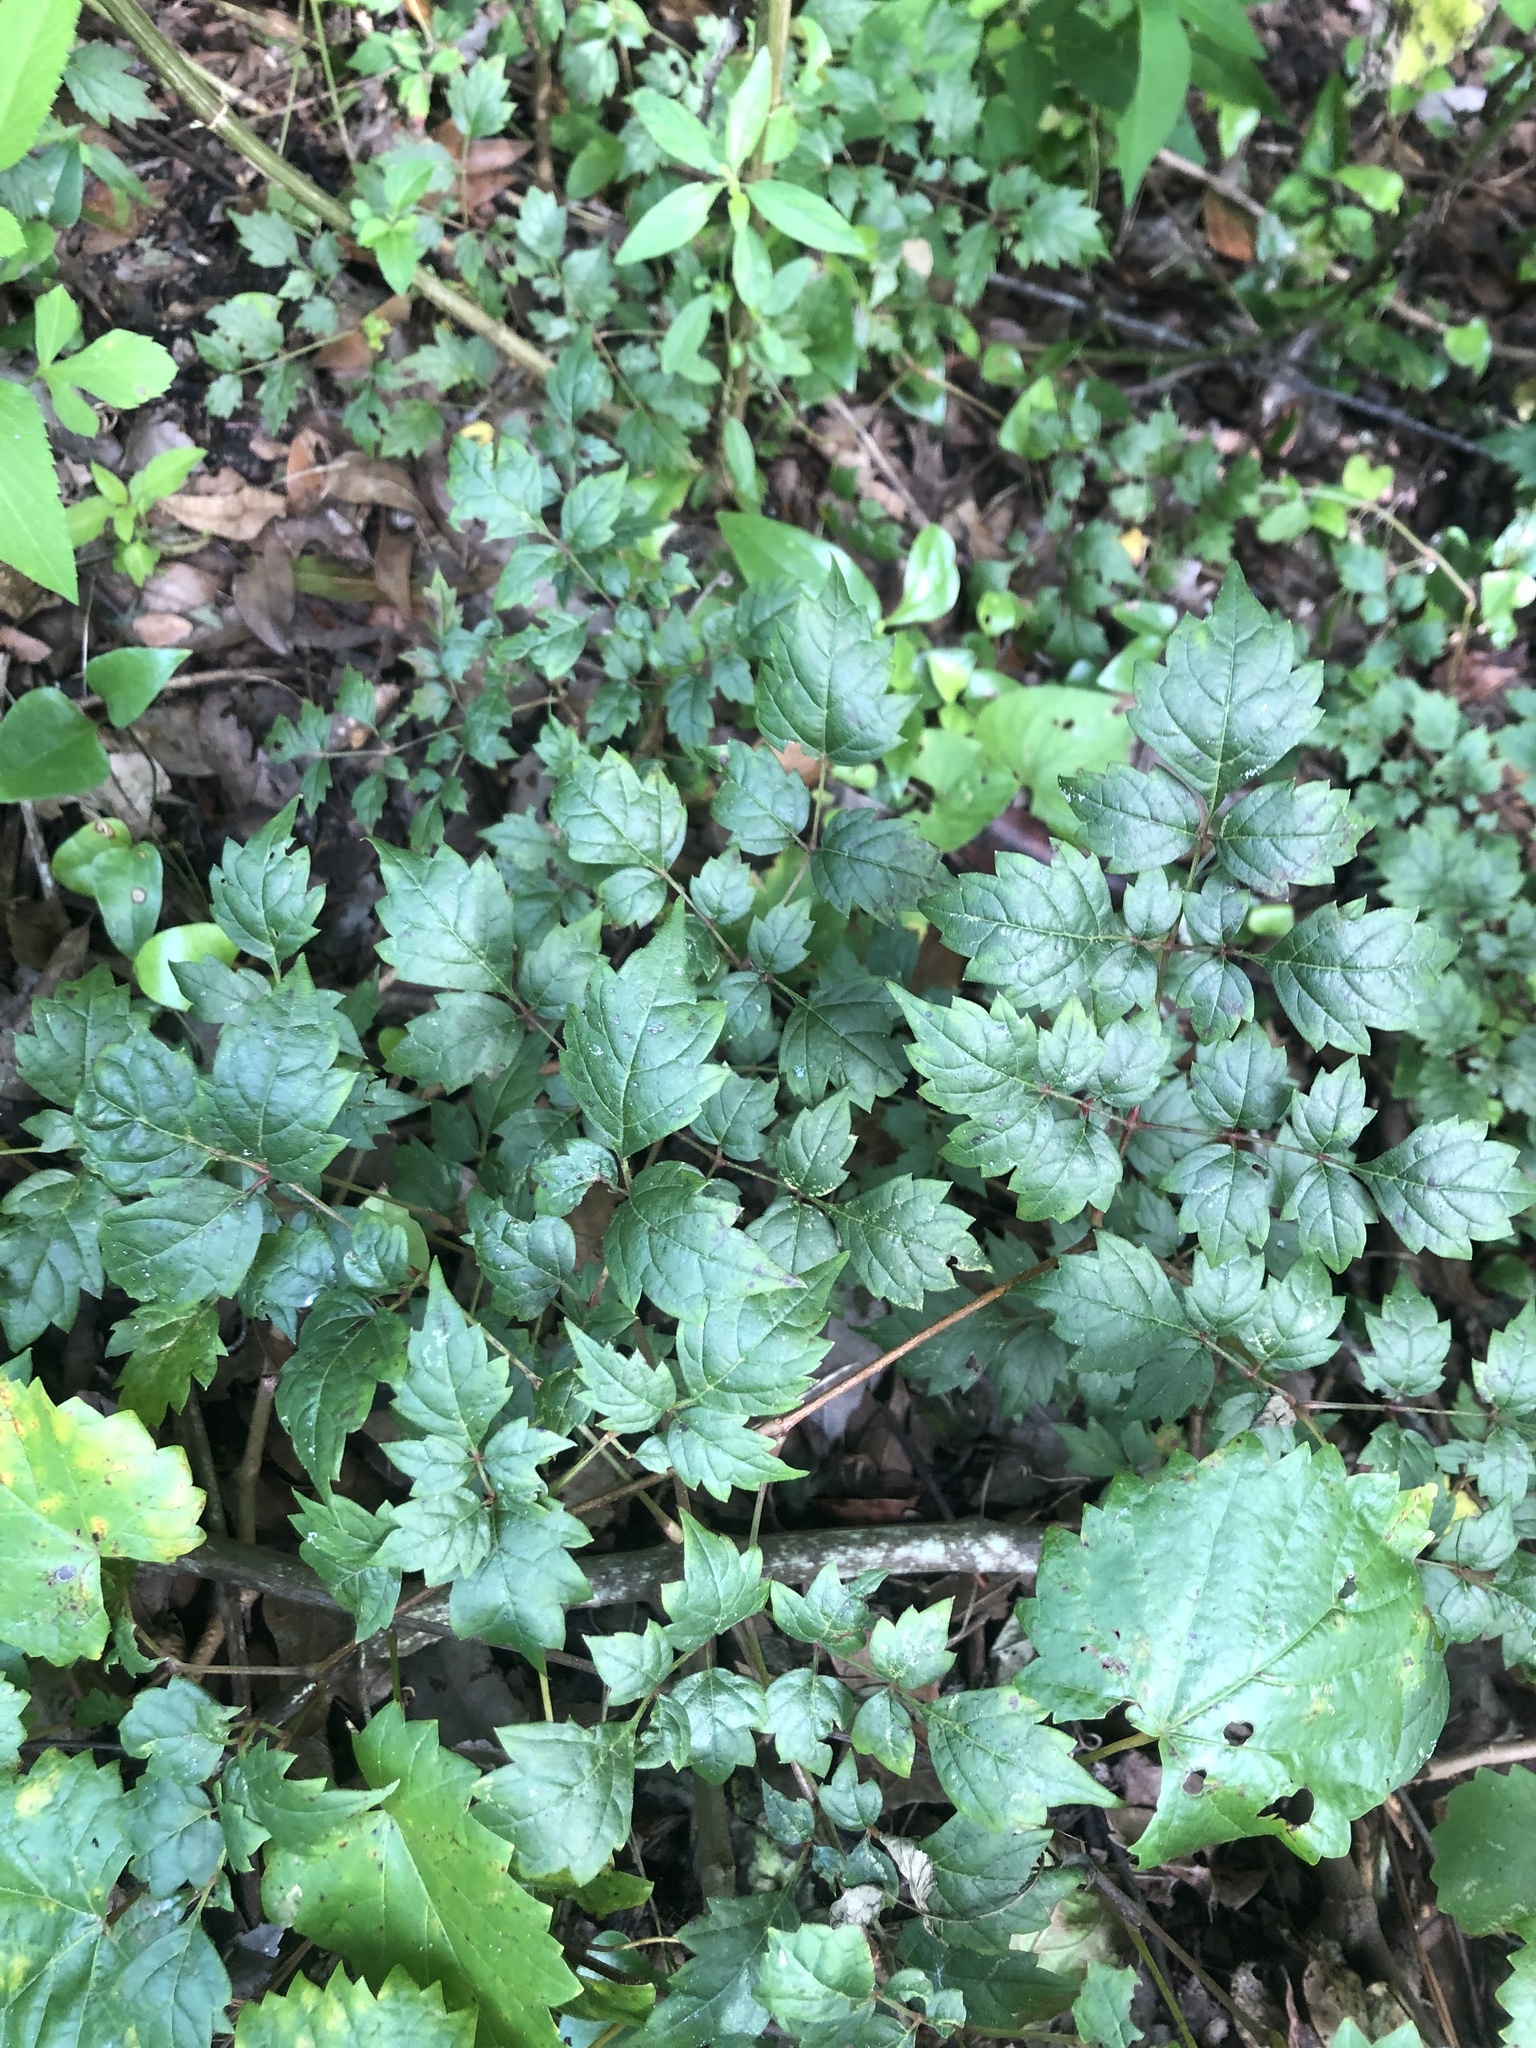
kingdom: Plantae
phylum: Tracheophyta
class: Magnoliopsida
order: Vitales
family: Vitaceae
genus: Nekemias
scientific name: Nekemias arborea
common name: Peppervine
